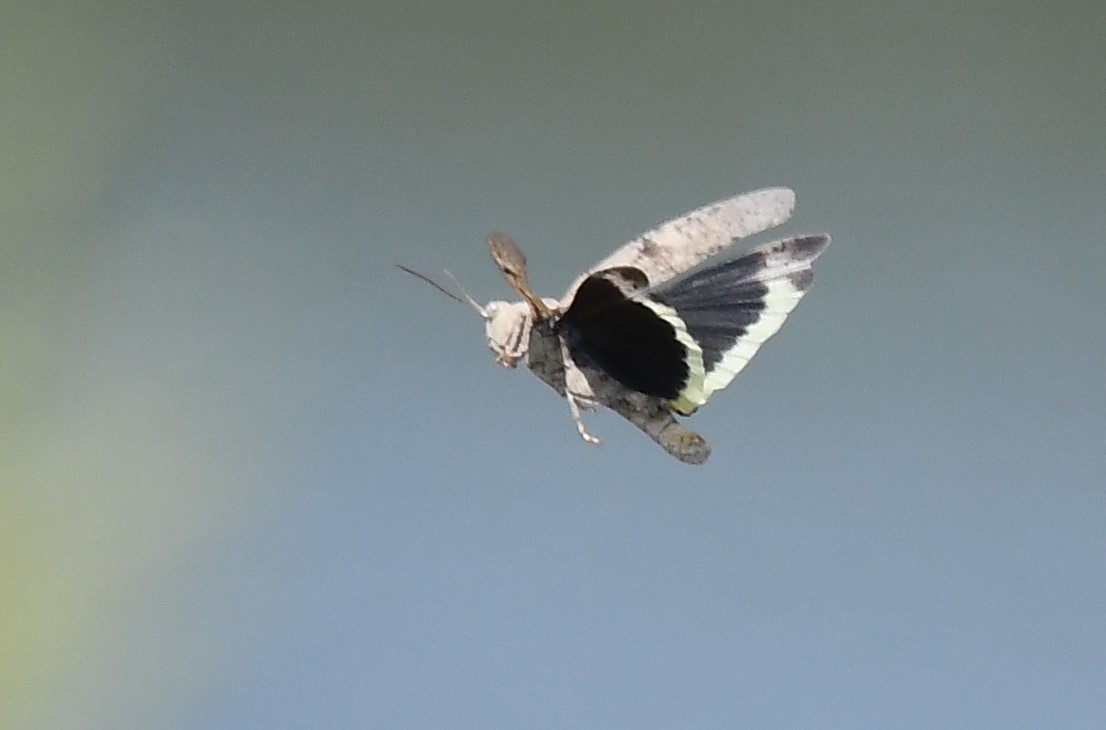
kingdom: Animalia
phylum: Arthropoda
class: Insecta
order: Orthoptera
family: Acrididae
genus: Dissosteira
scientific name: Dissosteira carolina
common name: Carolina grasshopper
